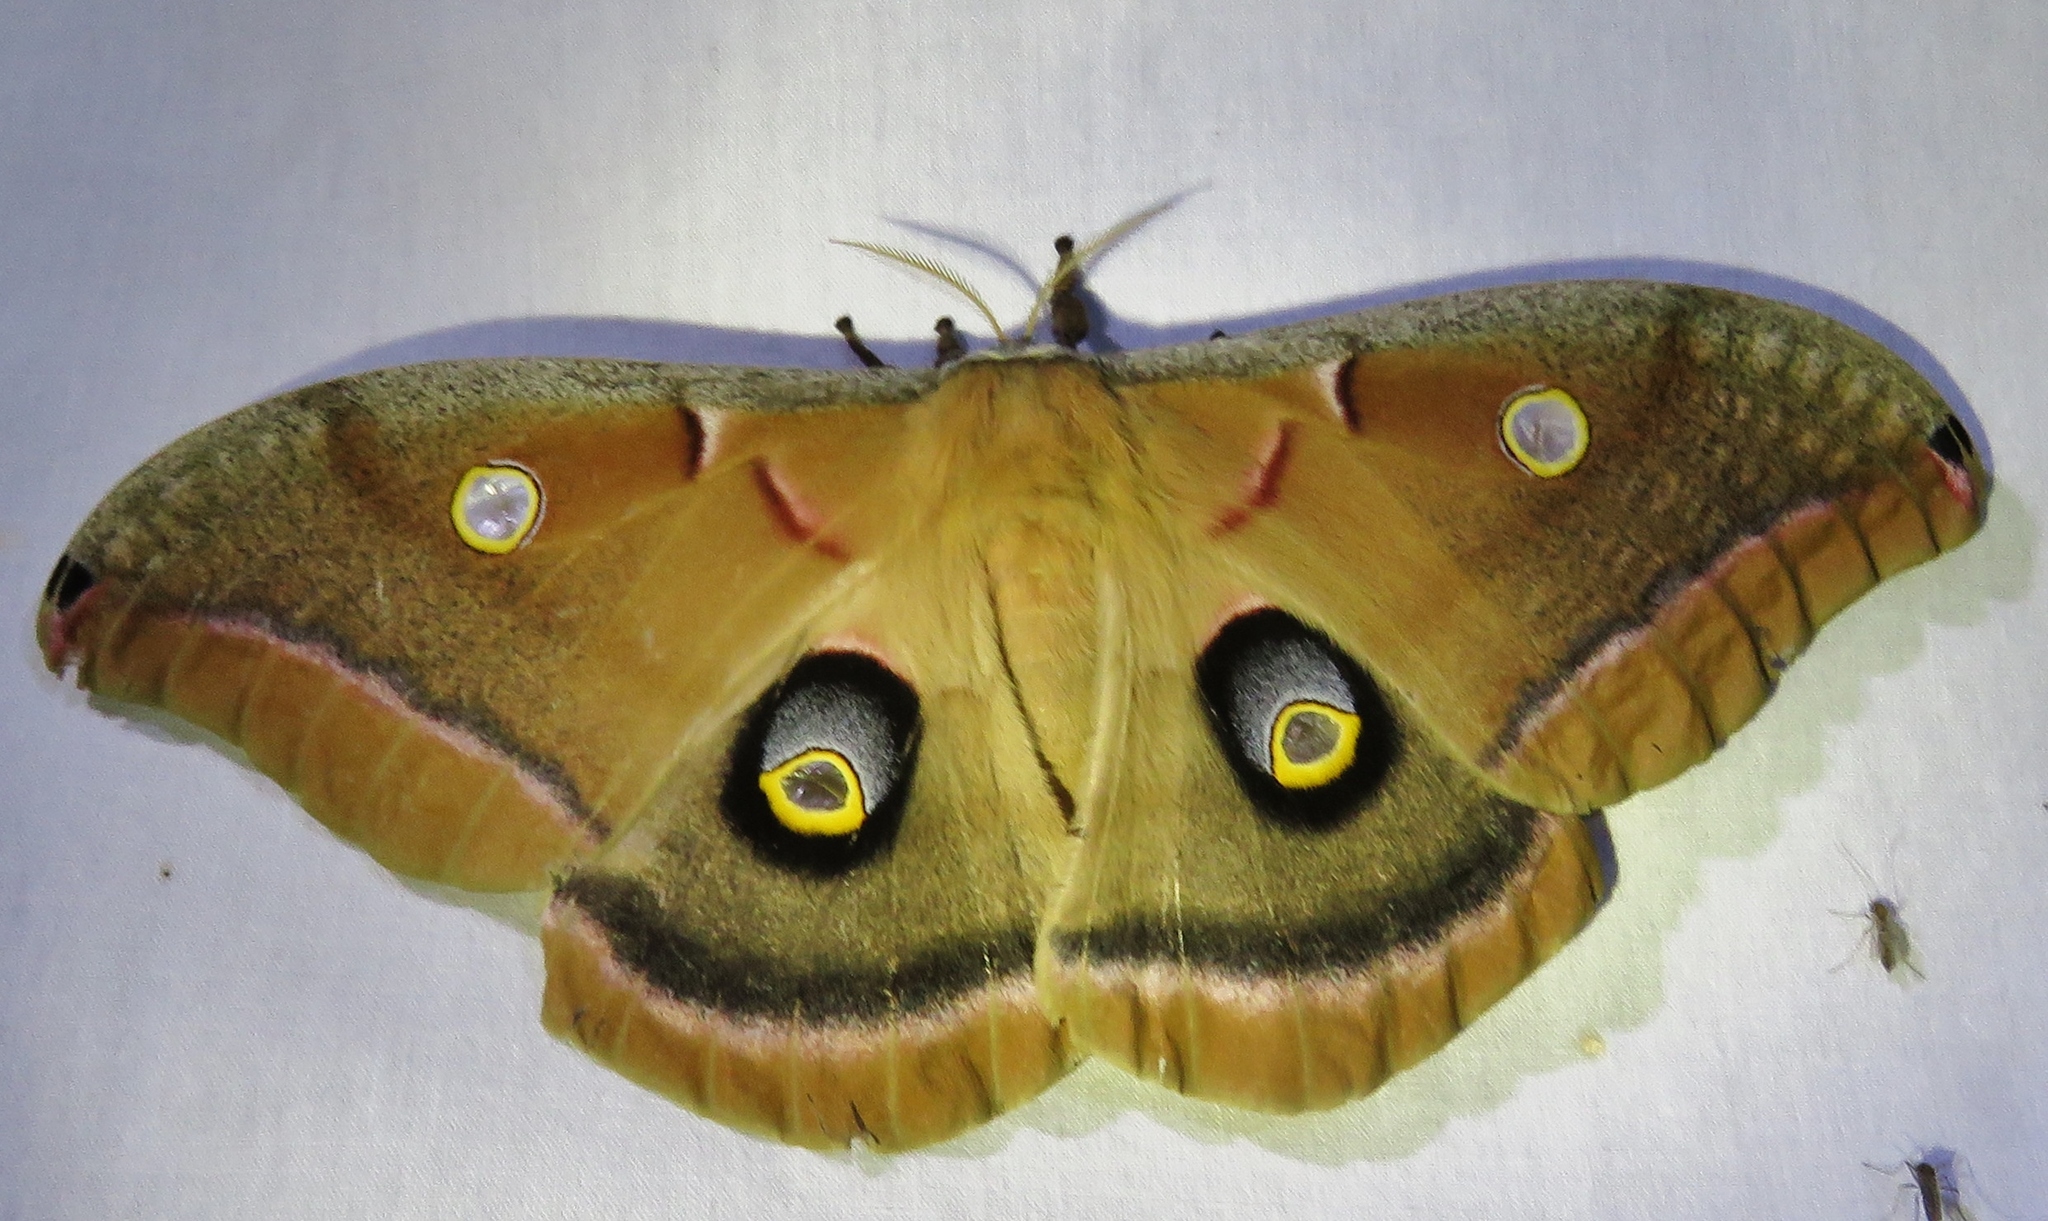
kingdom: Animalia
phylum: Arthropoda
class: Insecta
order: Lepidoptera
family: Saturniidae
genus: Antheraea
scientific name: Antheraea polyphemus
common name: Polyphemus moth
